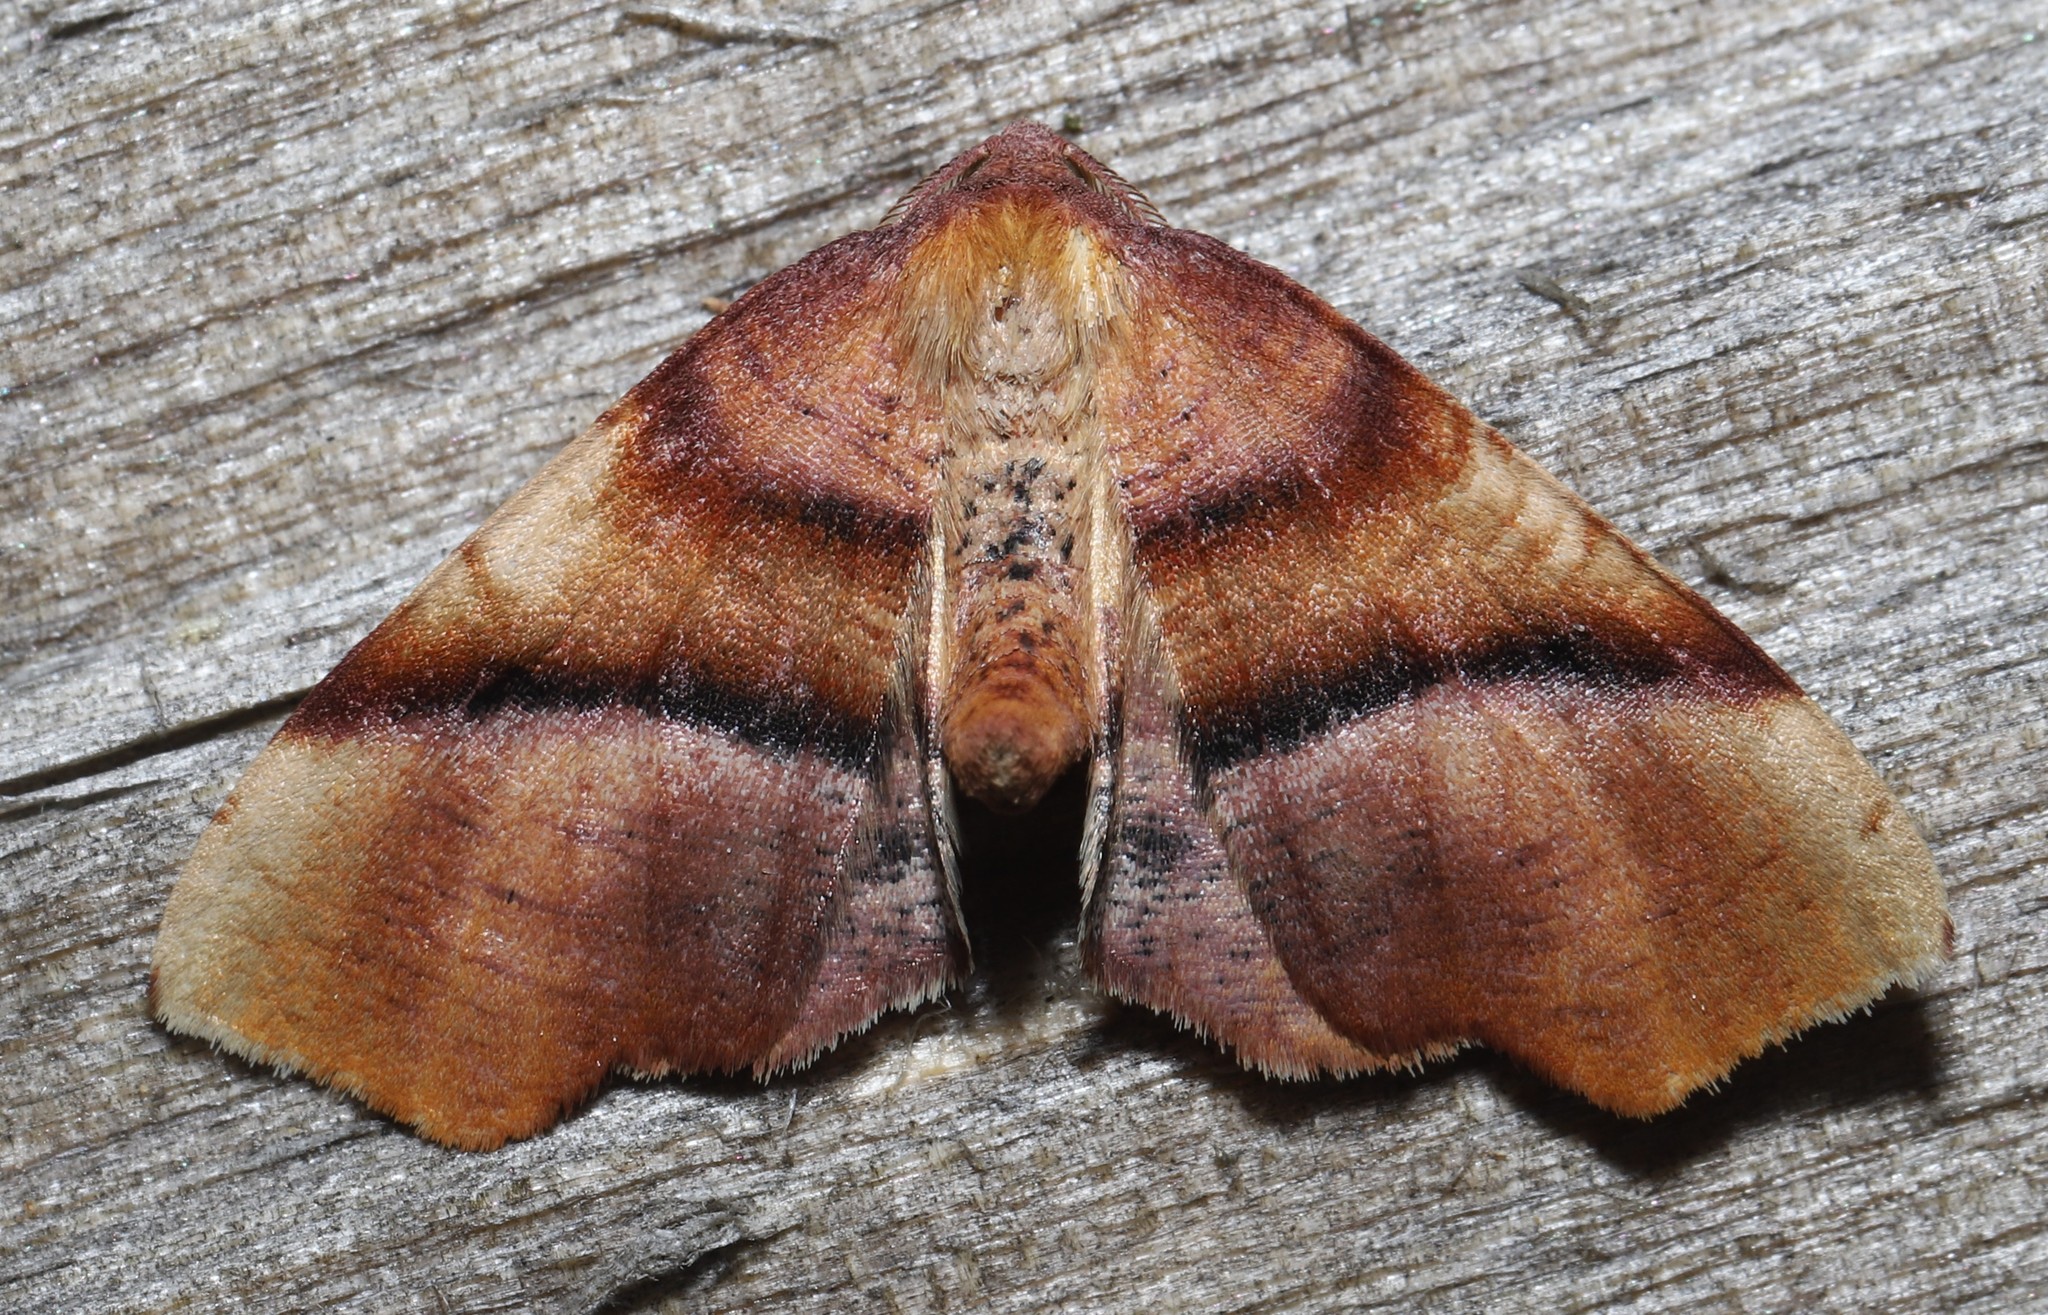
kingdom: Animalia
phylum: Arthropoda
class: Insecta
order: Lepidoptera
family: Geometridae
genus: Plagodis
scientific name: Plagodis phlogosaria
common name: Straight-lined plagodis
